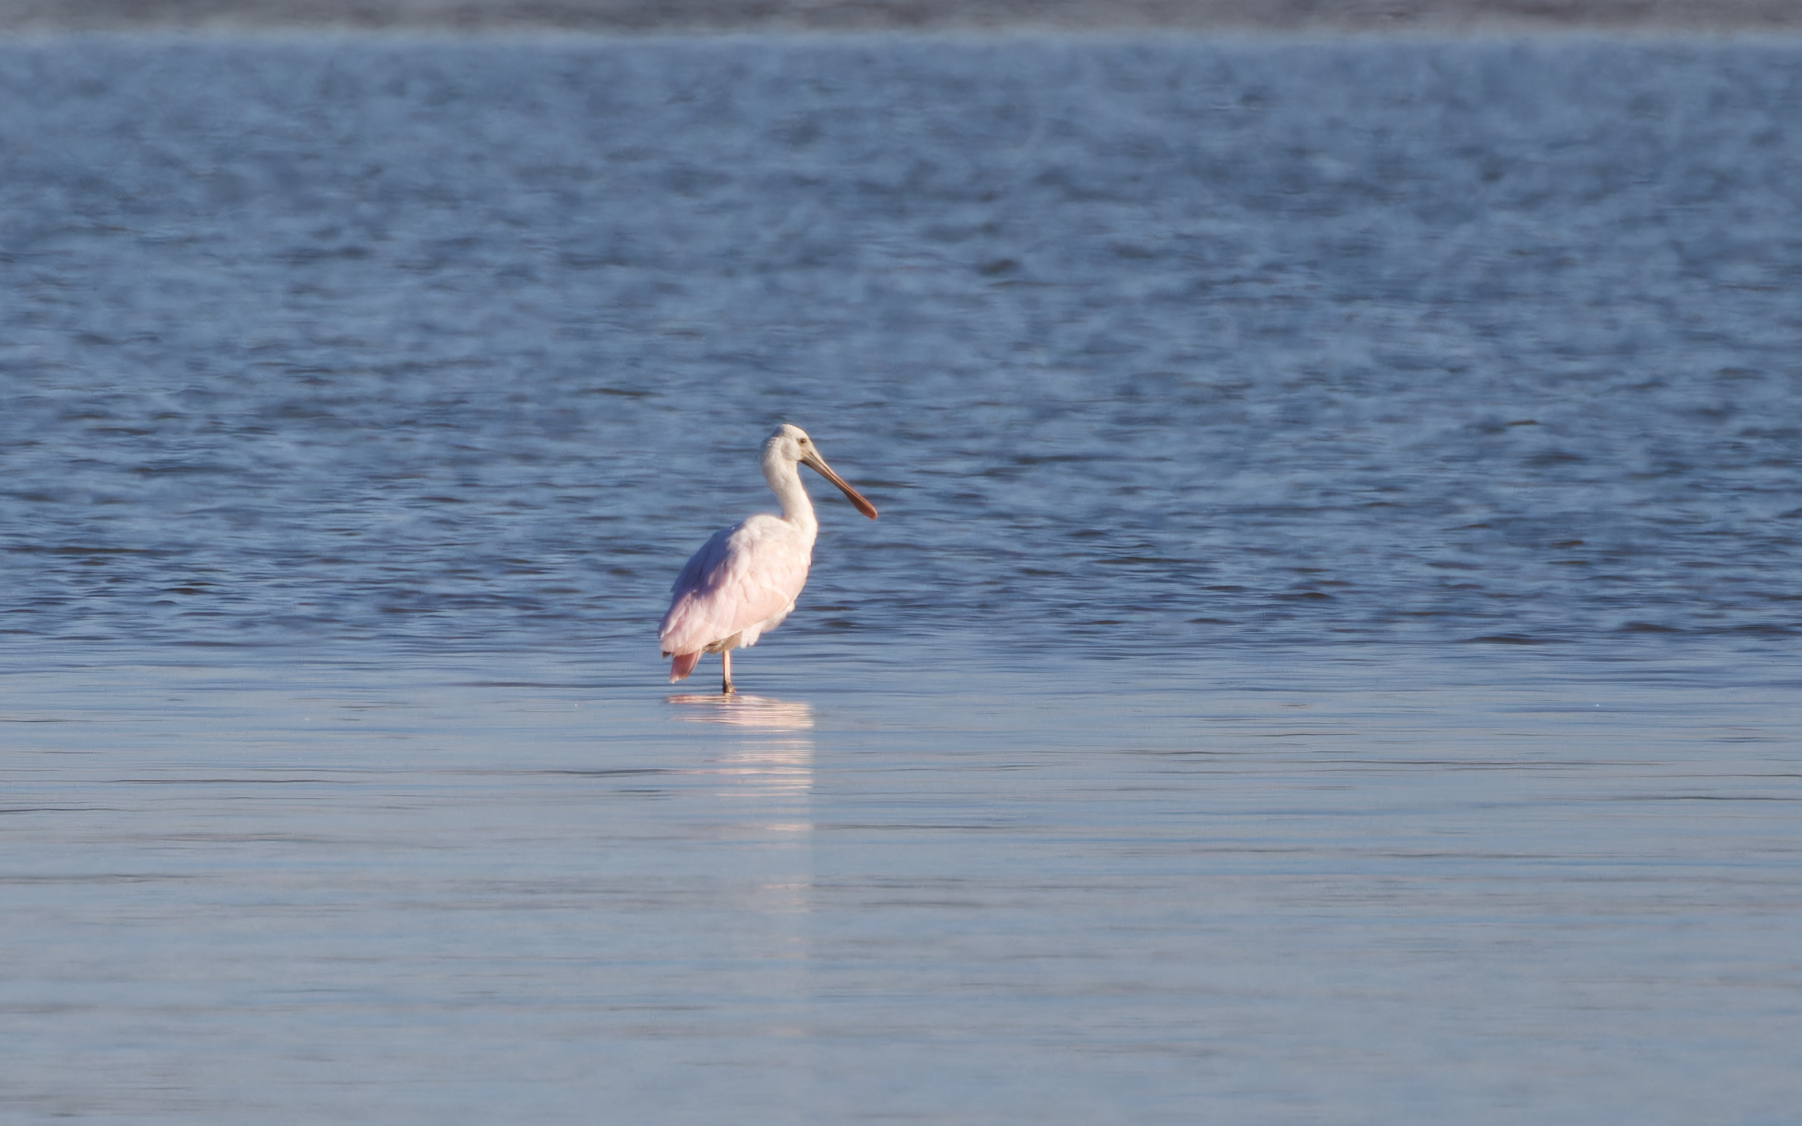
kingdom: Animalia
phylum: Chordata
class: Aves
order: Pelecaniformes
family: Threskiornithidae
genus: Platalea
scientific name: Platalea ajaja
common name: Roseate spoonbill
